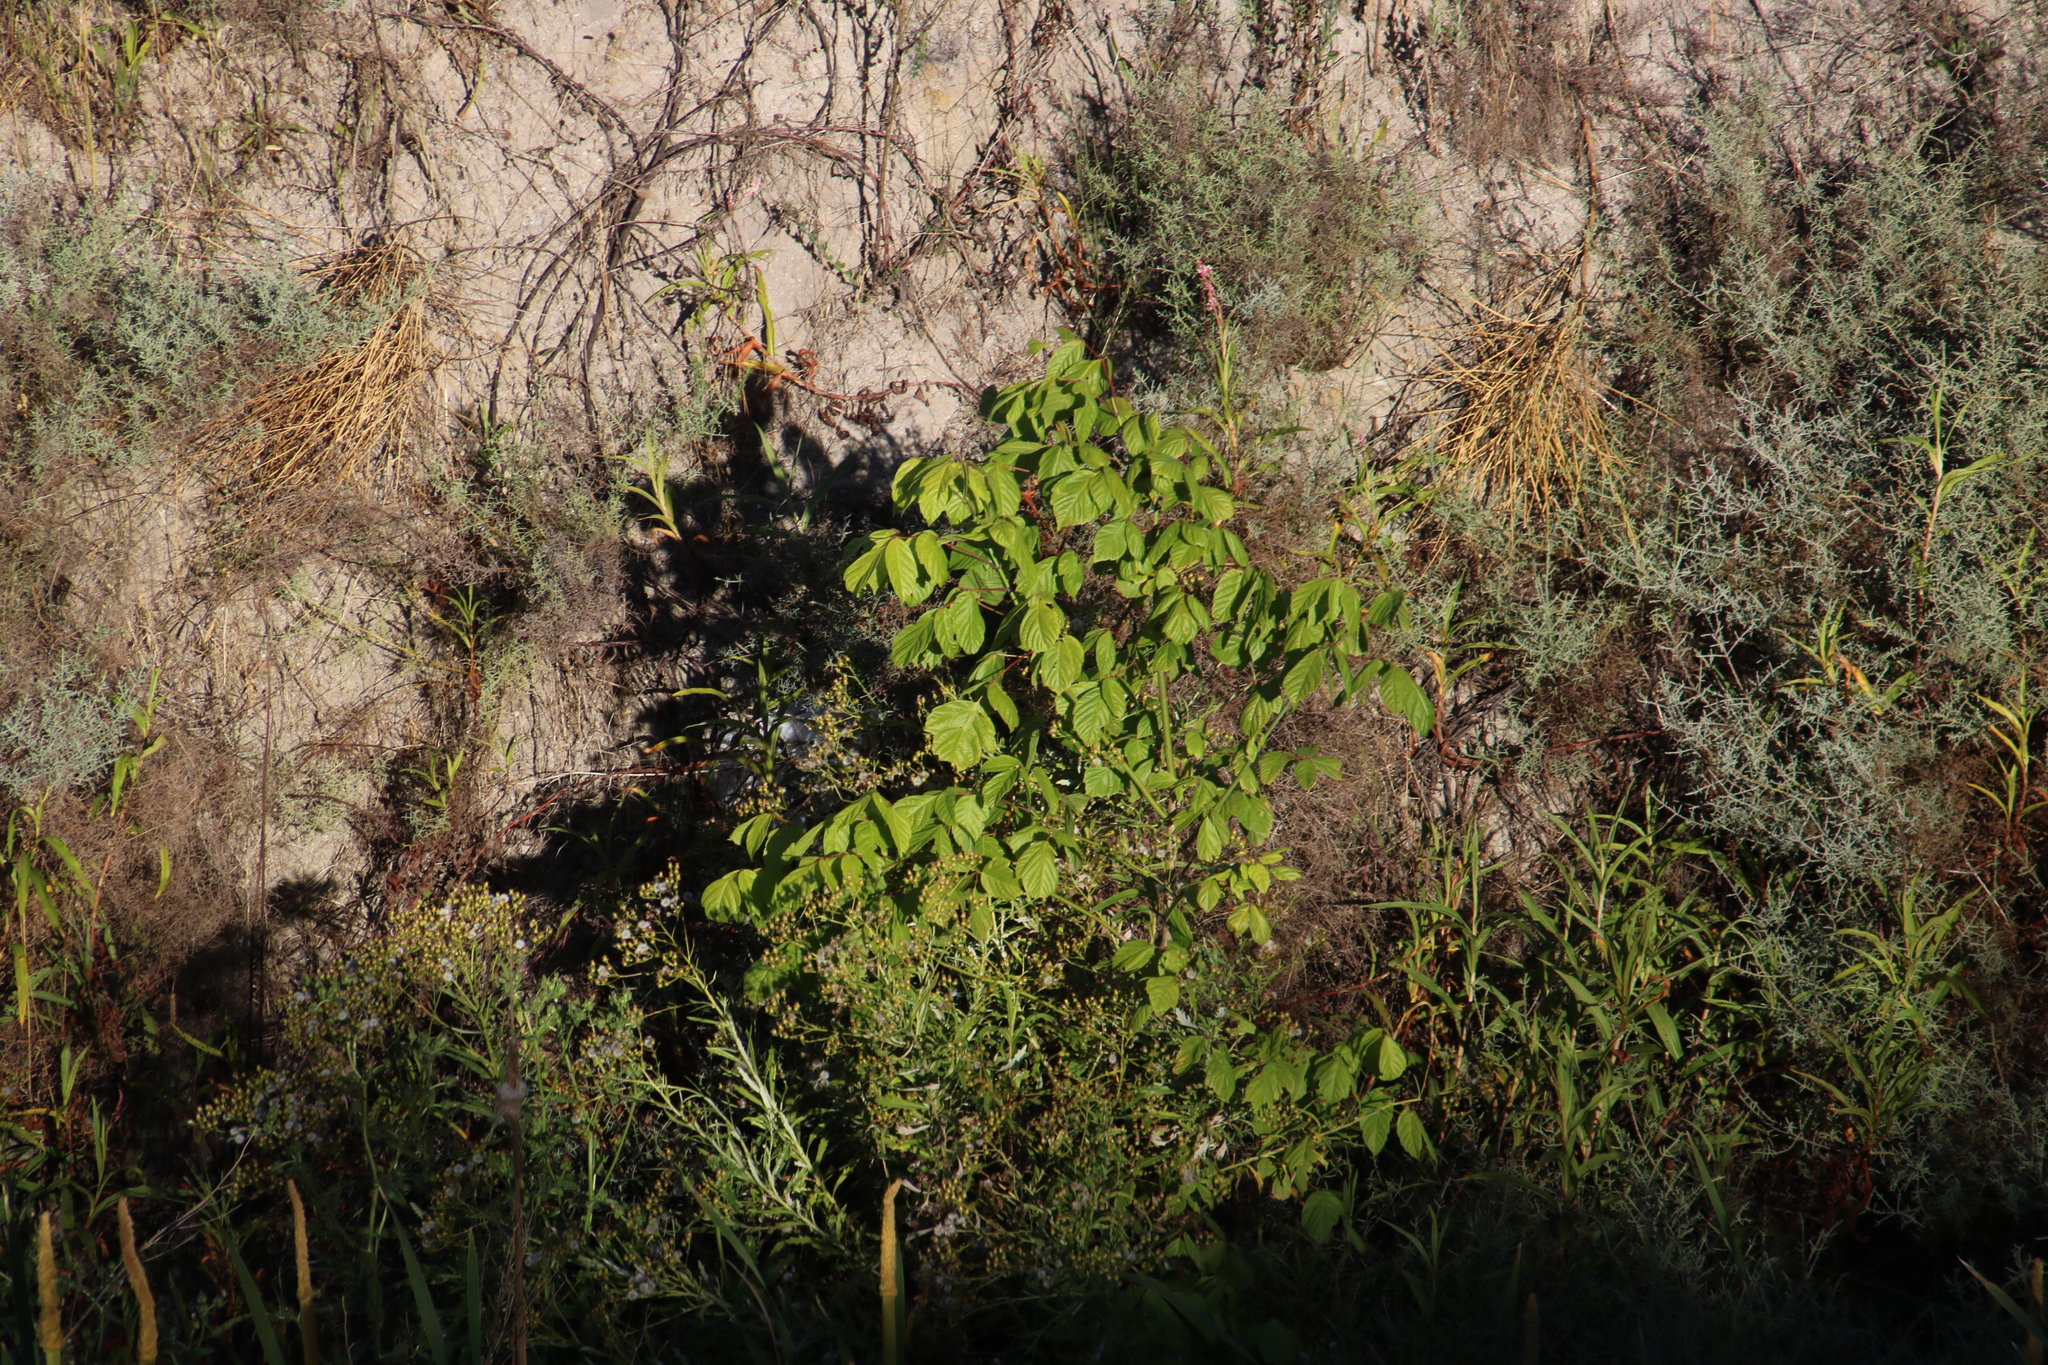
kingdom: Plantae
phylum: Tracheophyta
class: Magnoliopsida
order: Sapindales
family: Sapindaceae
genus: Acer
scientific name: Acer negundo
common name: Ashleaf maple
